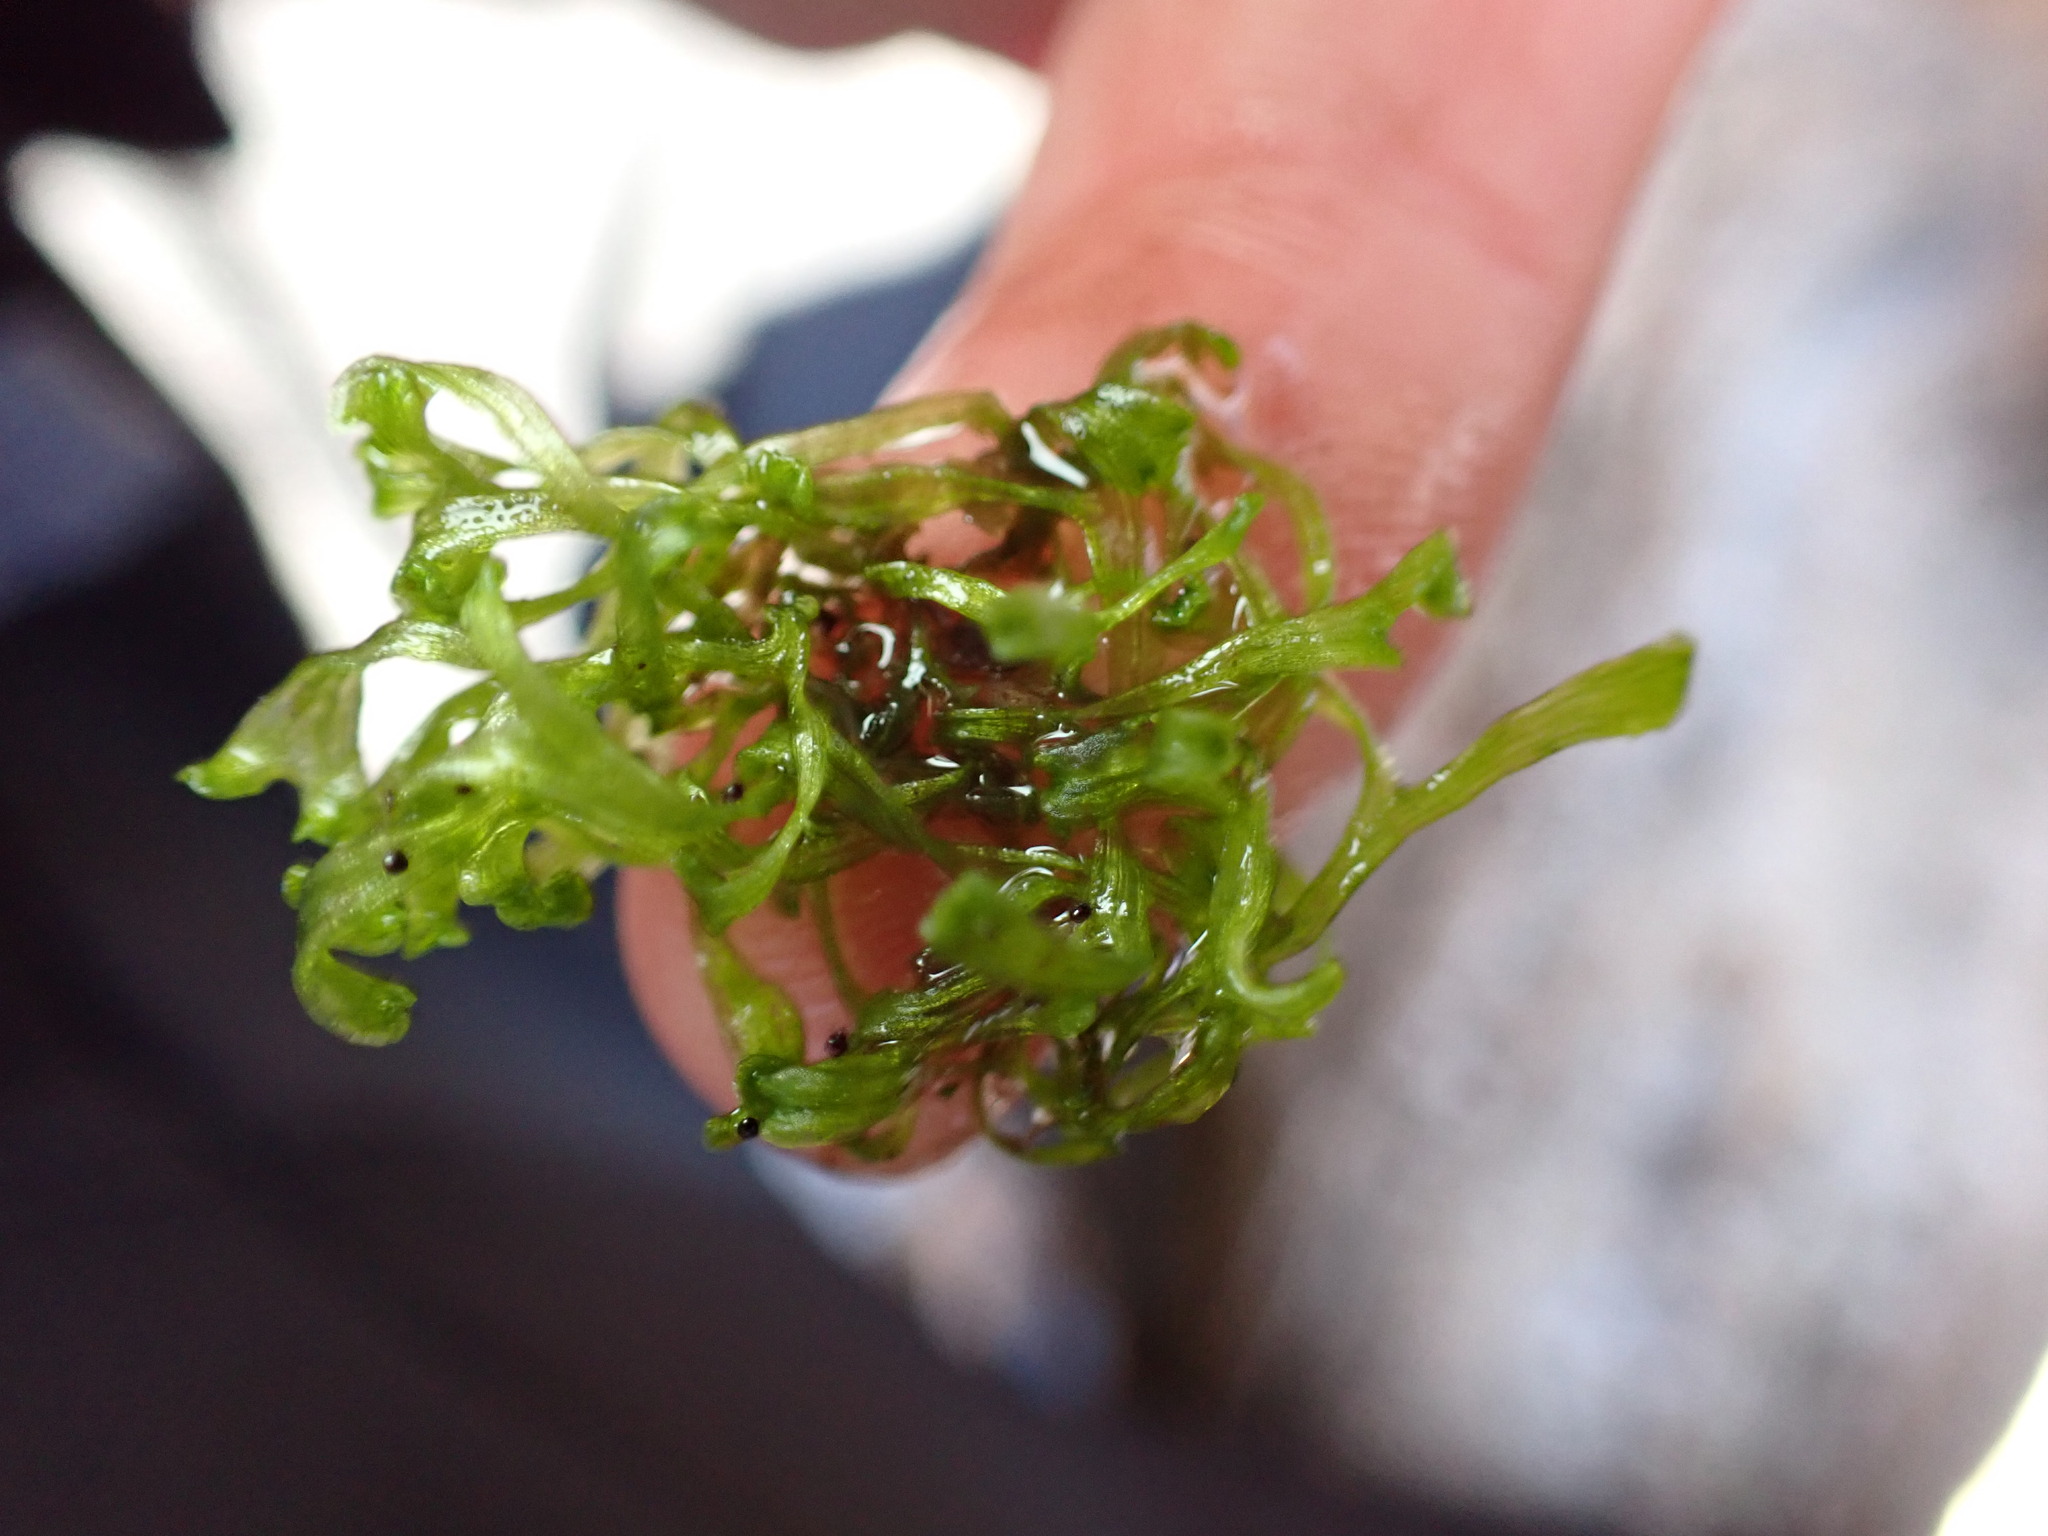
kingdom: Plantae
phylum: Marchantiophyta
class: Marchantiopsida
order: Marchantiales
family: Ricciaceae
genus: Riccia
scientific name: Riccia fluitans
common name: Floating crystalwort
